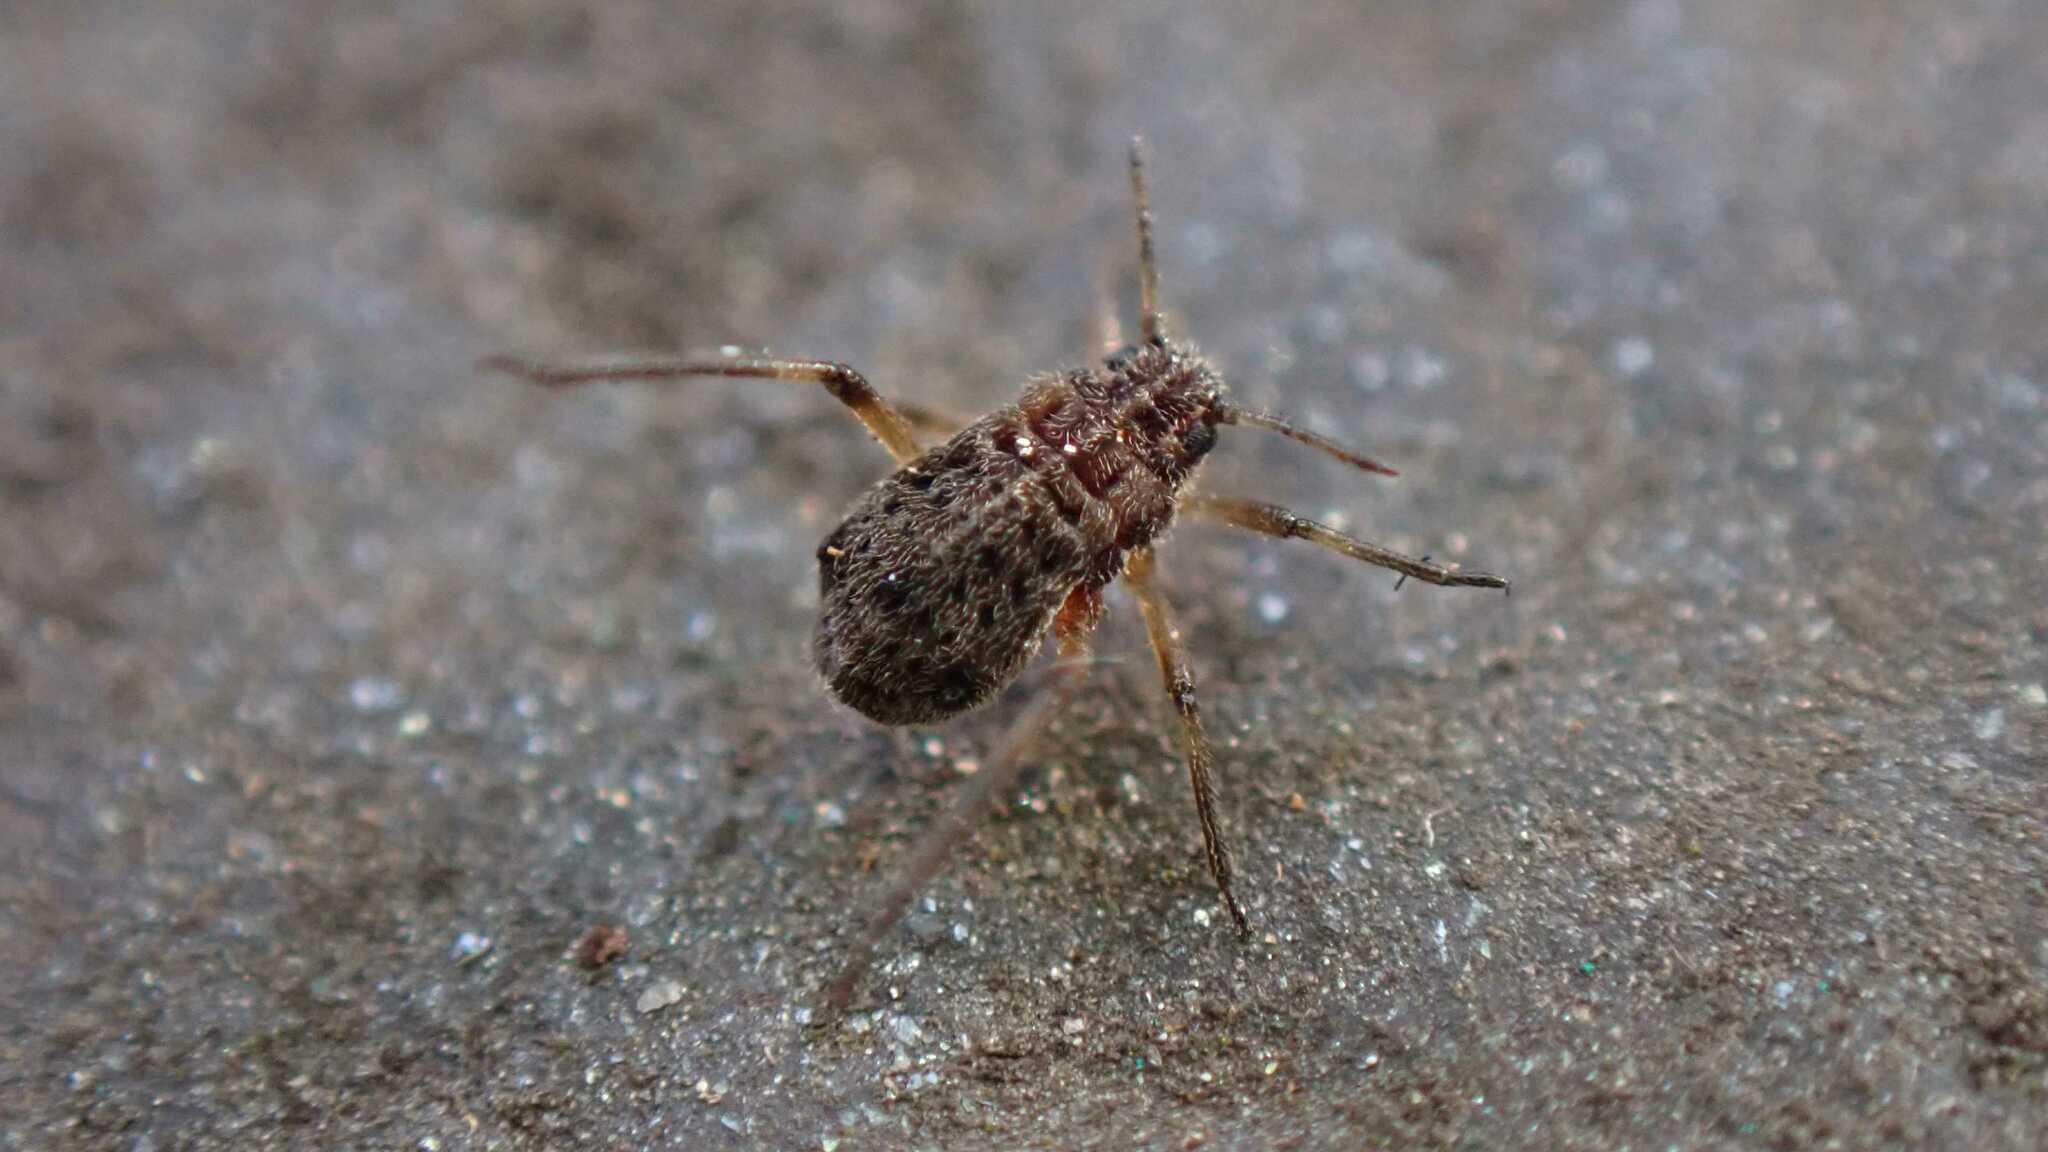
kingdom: Animalia
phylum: Arthropoda
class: Insecta
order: Hemiptera
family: Aphididae
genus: Tuberolachnus
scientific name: Tuberolachnus salignus
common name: Giant willow aphid
